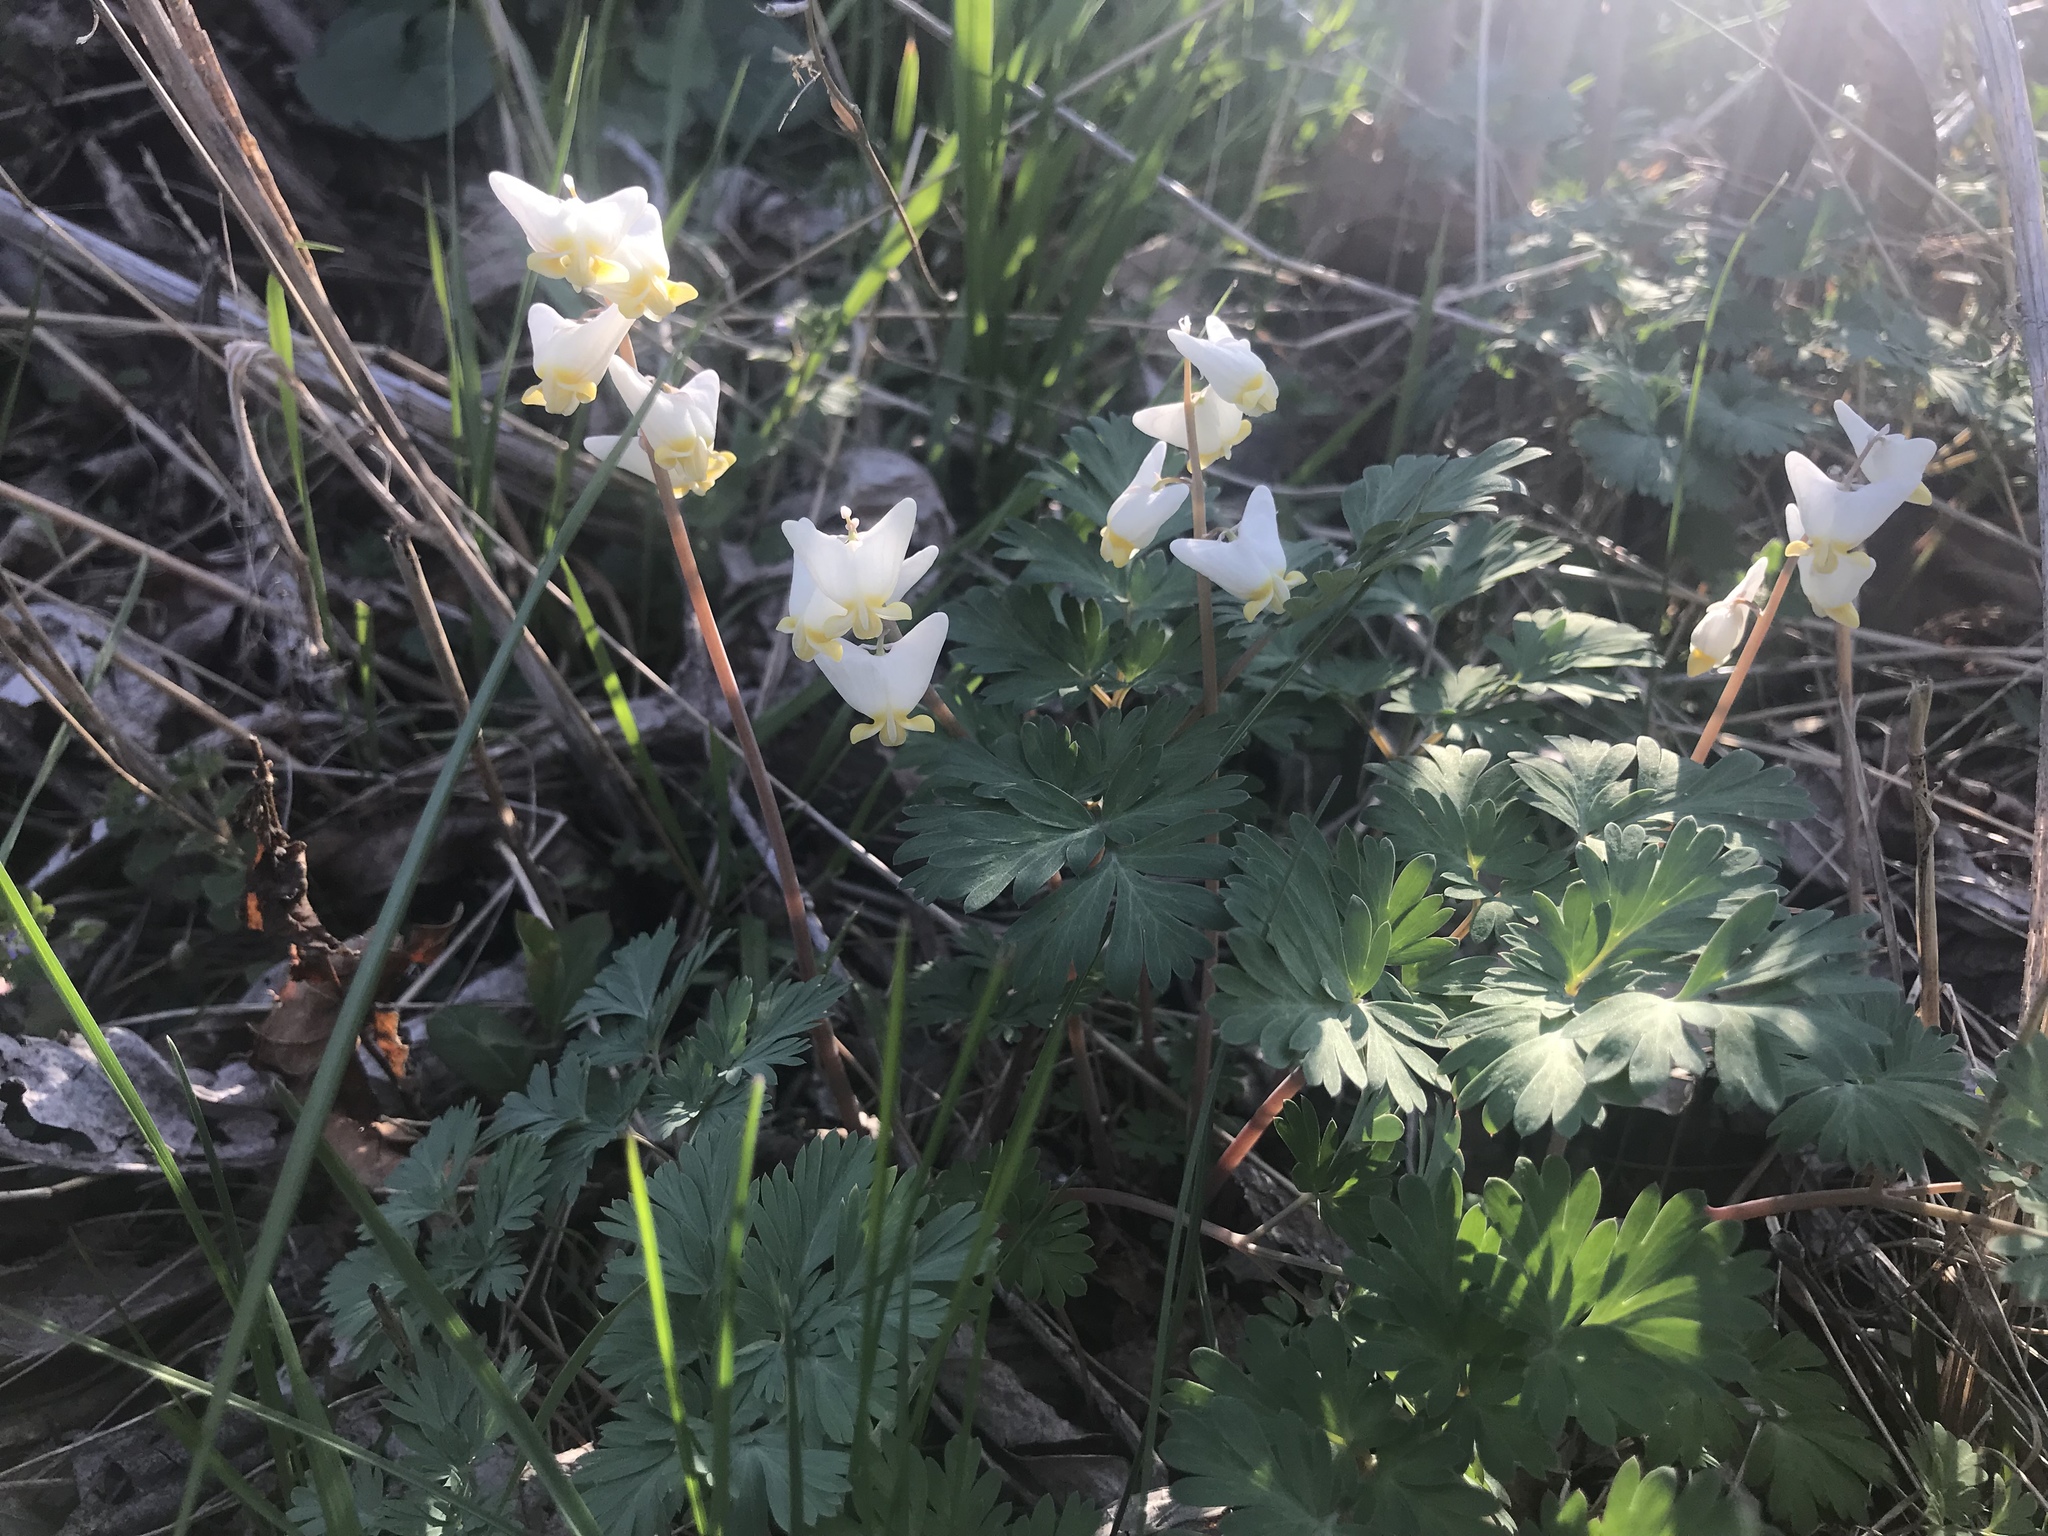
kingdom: Plantae
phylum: Tracheophyta
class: Magnoliopsida
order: Ranunculales
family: Papaveraceae
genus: Dicentra
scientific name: Dicentra cucullaria
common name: Dutchman's breeches
